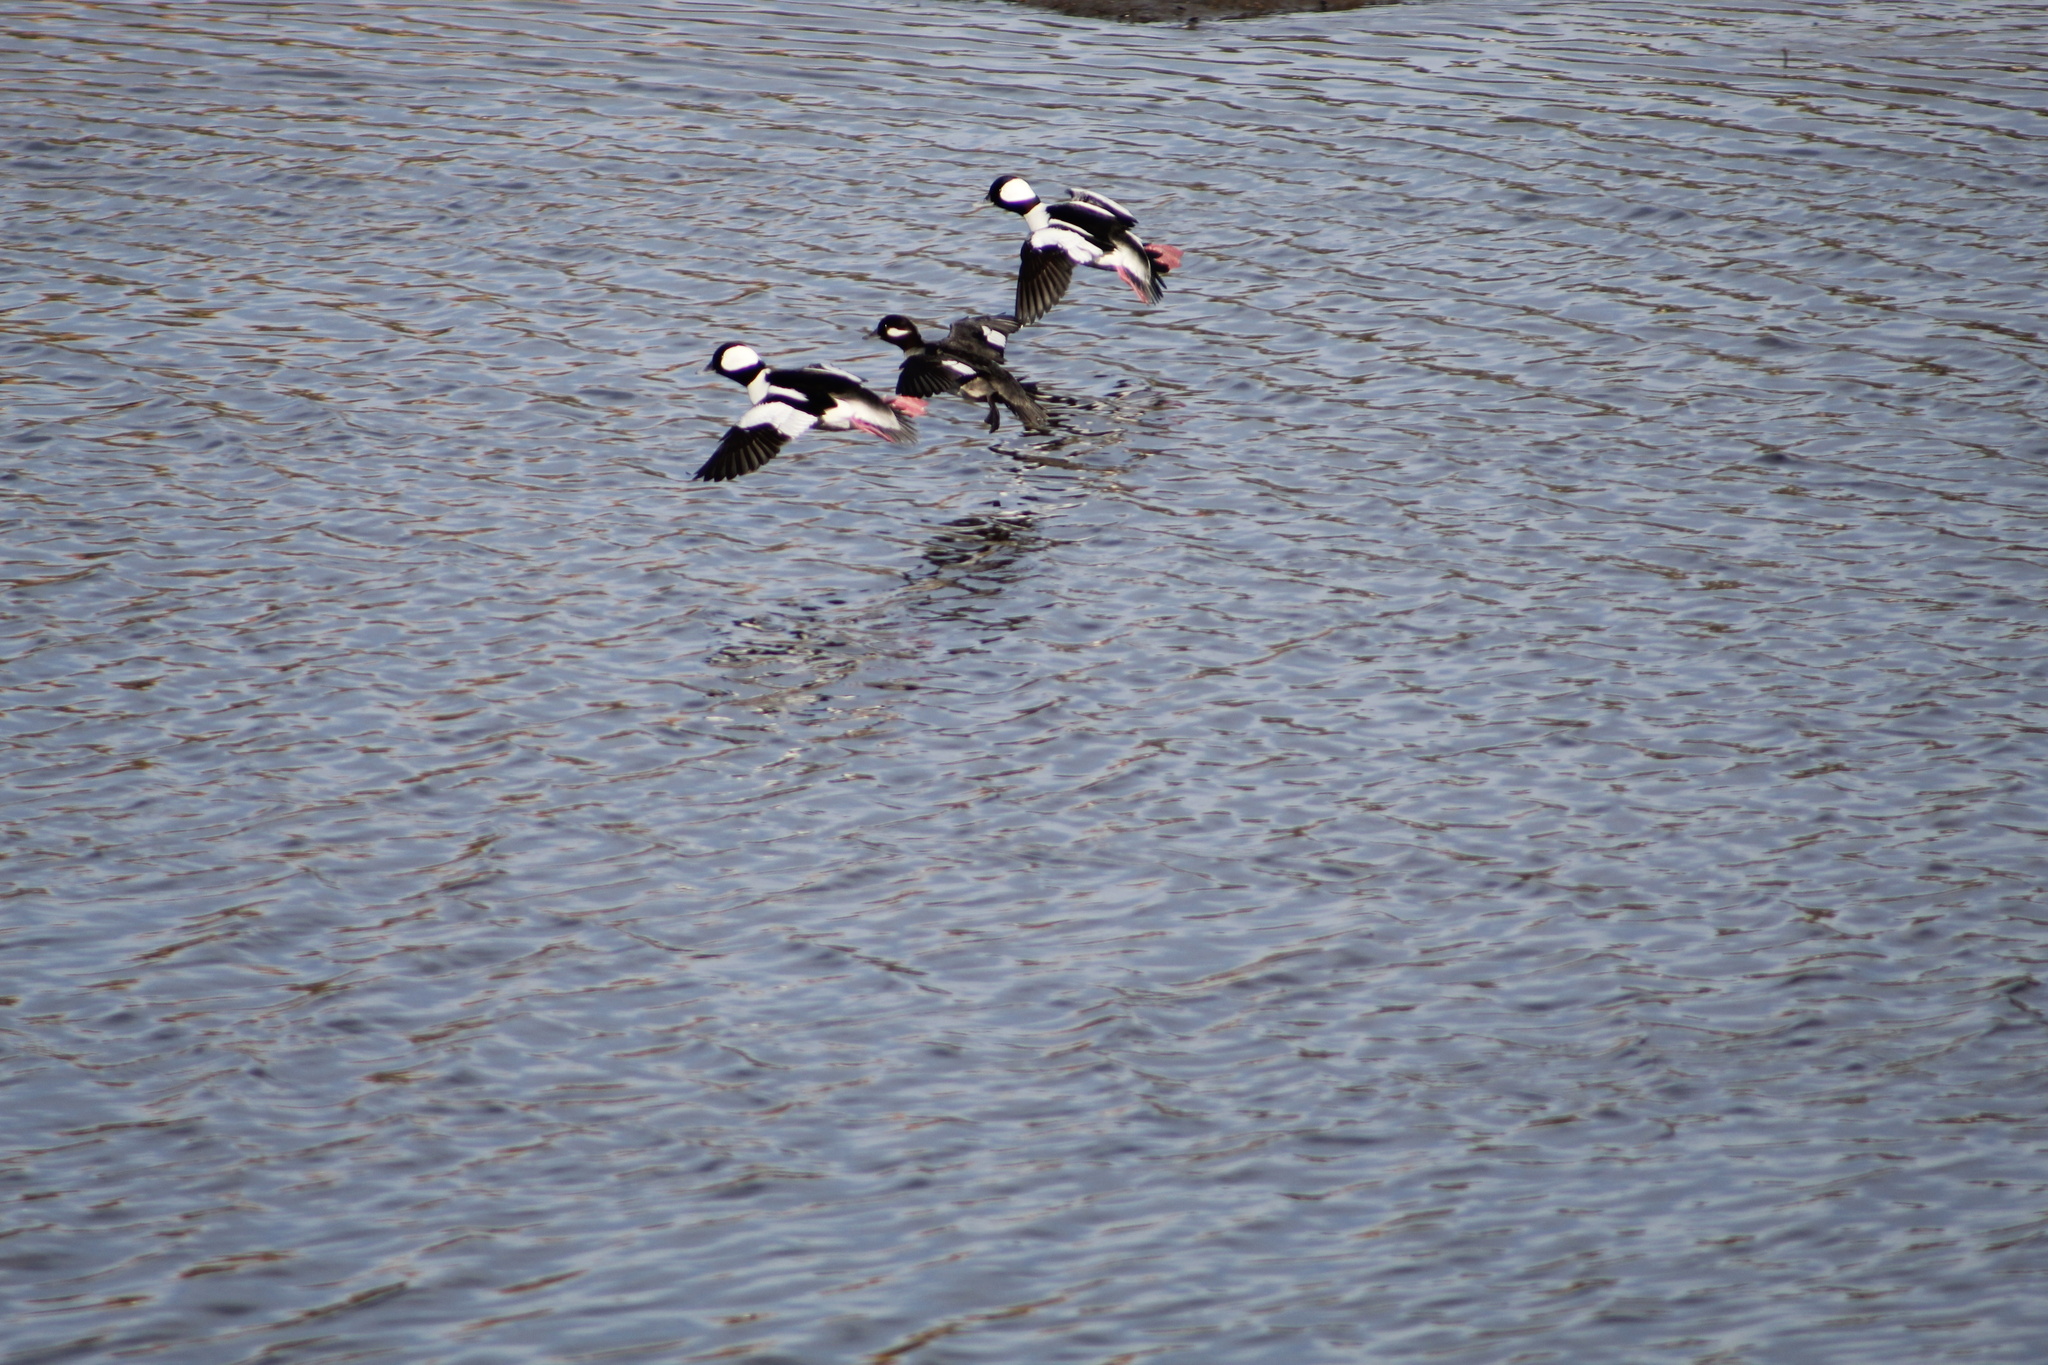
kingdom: Animalia
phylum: Chordata
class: Aves
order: Anseriformes
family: Anatidae
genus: Bucephala
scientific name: Bucephala albeola
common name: Bufflehead
